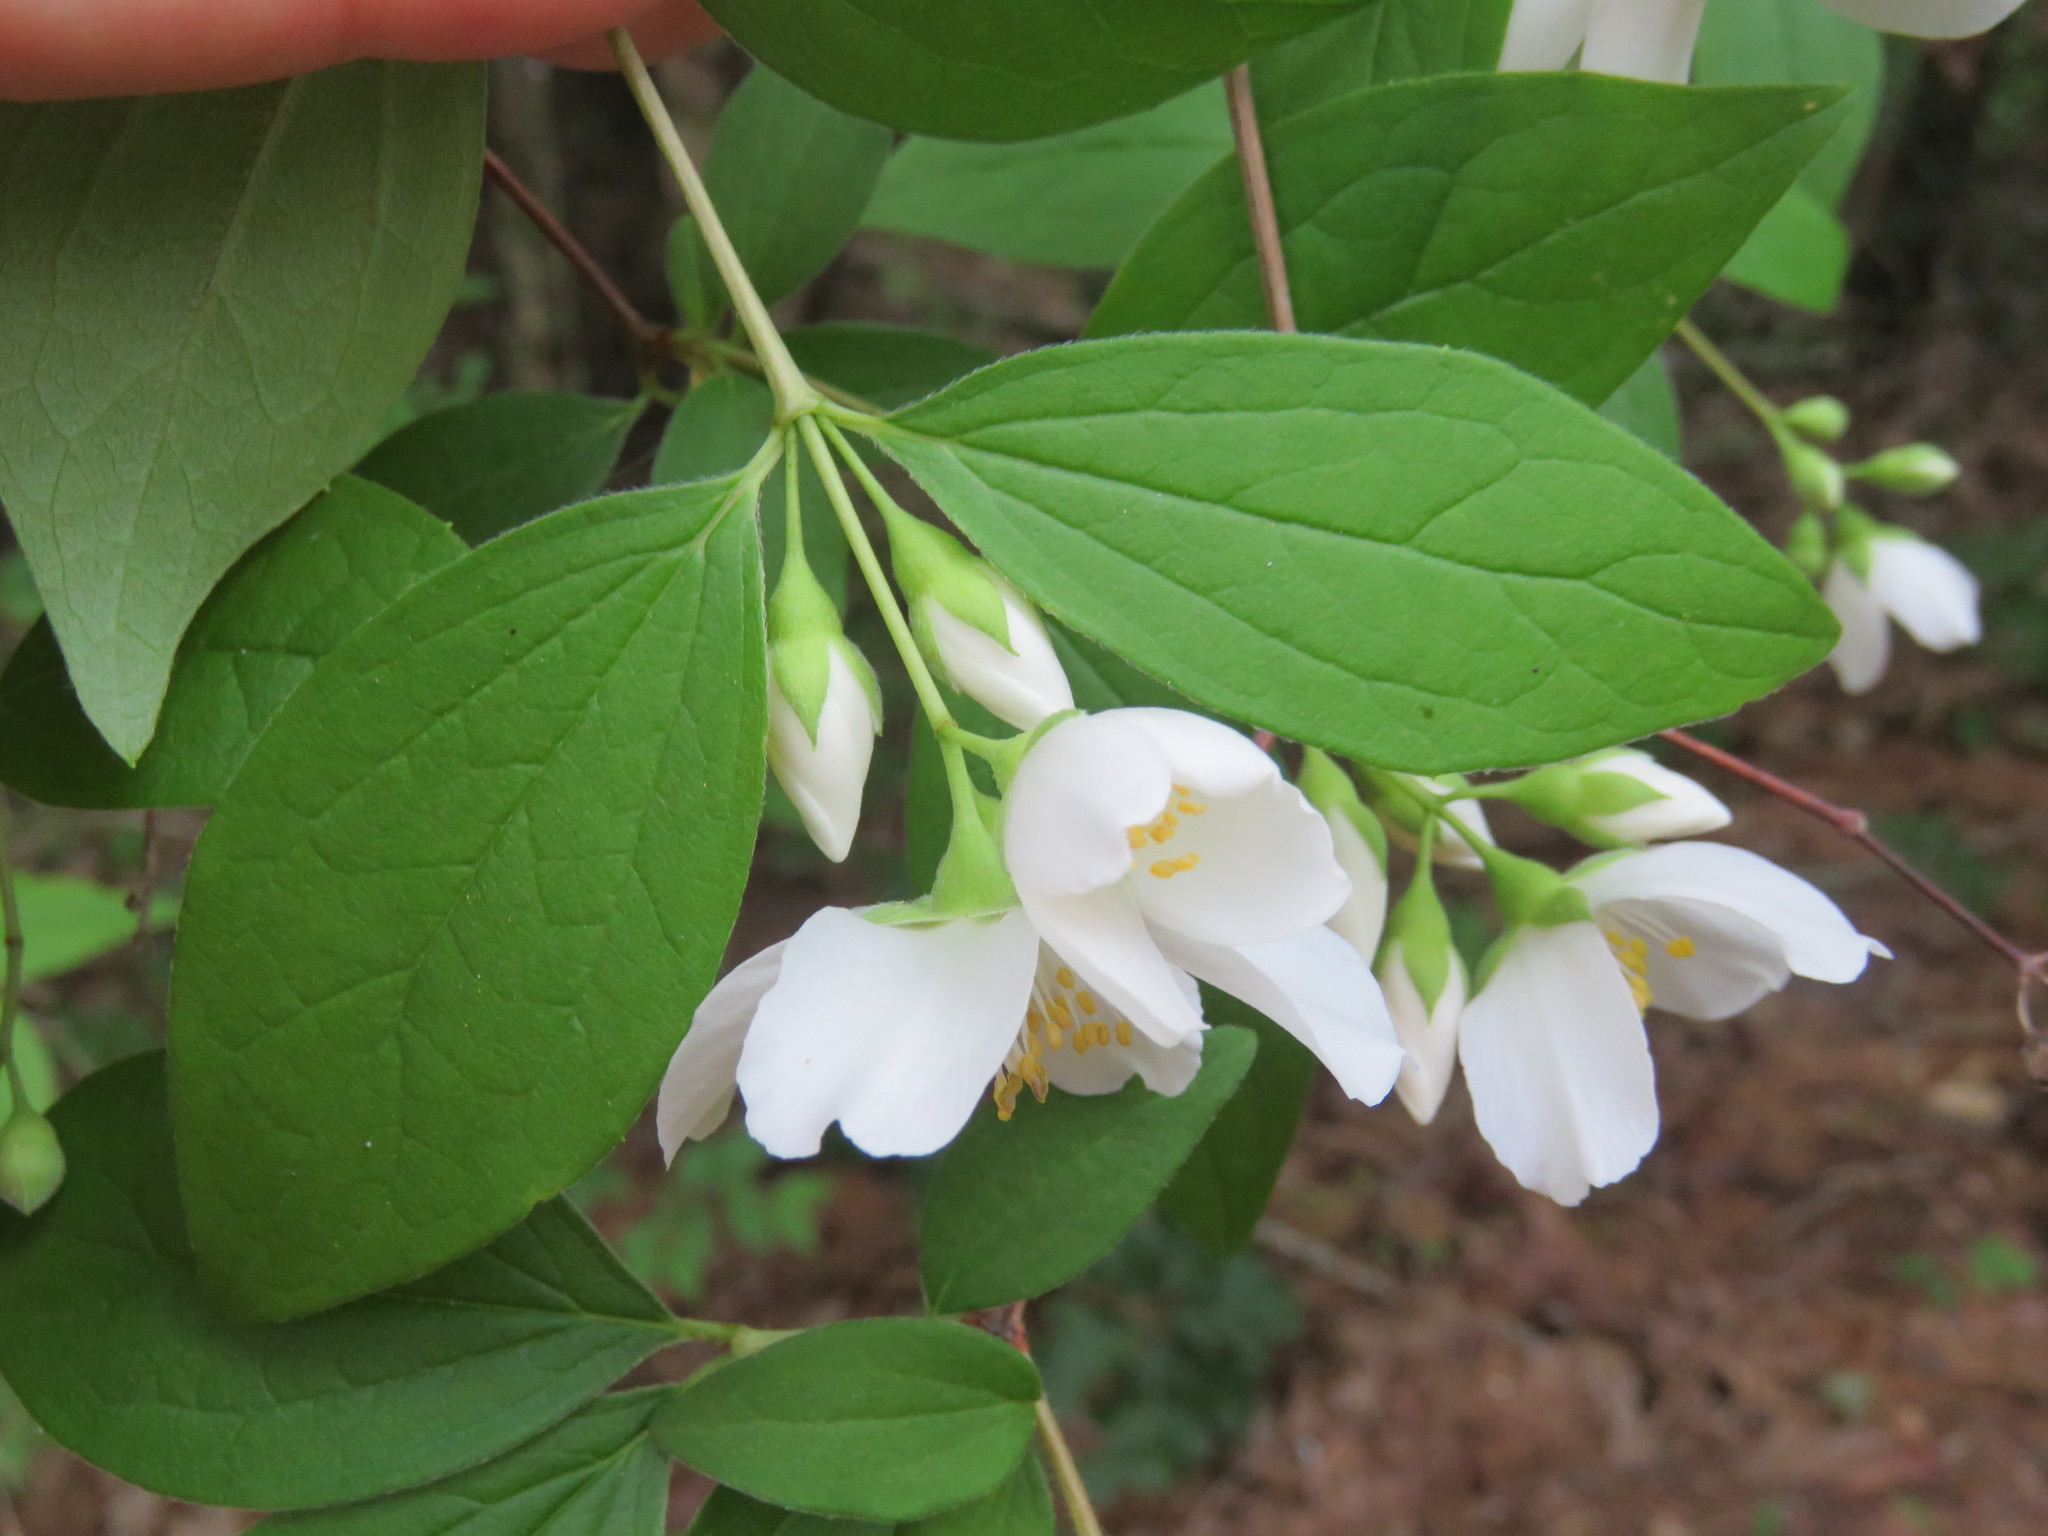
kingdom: Plantae
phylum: Tracheophyta
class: Magnoliopsida
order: Cornales
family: Hydrangeaceae
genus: Philadelphus
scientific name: Philadelphus pubescens
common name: Broadleaf mock orange
